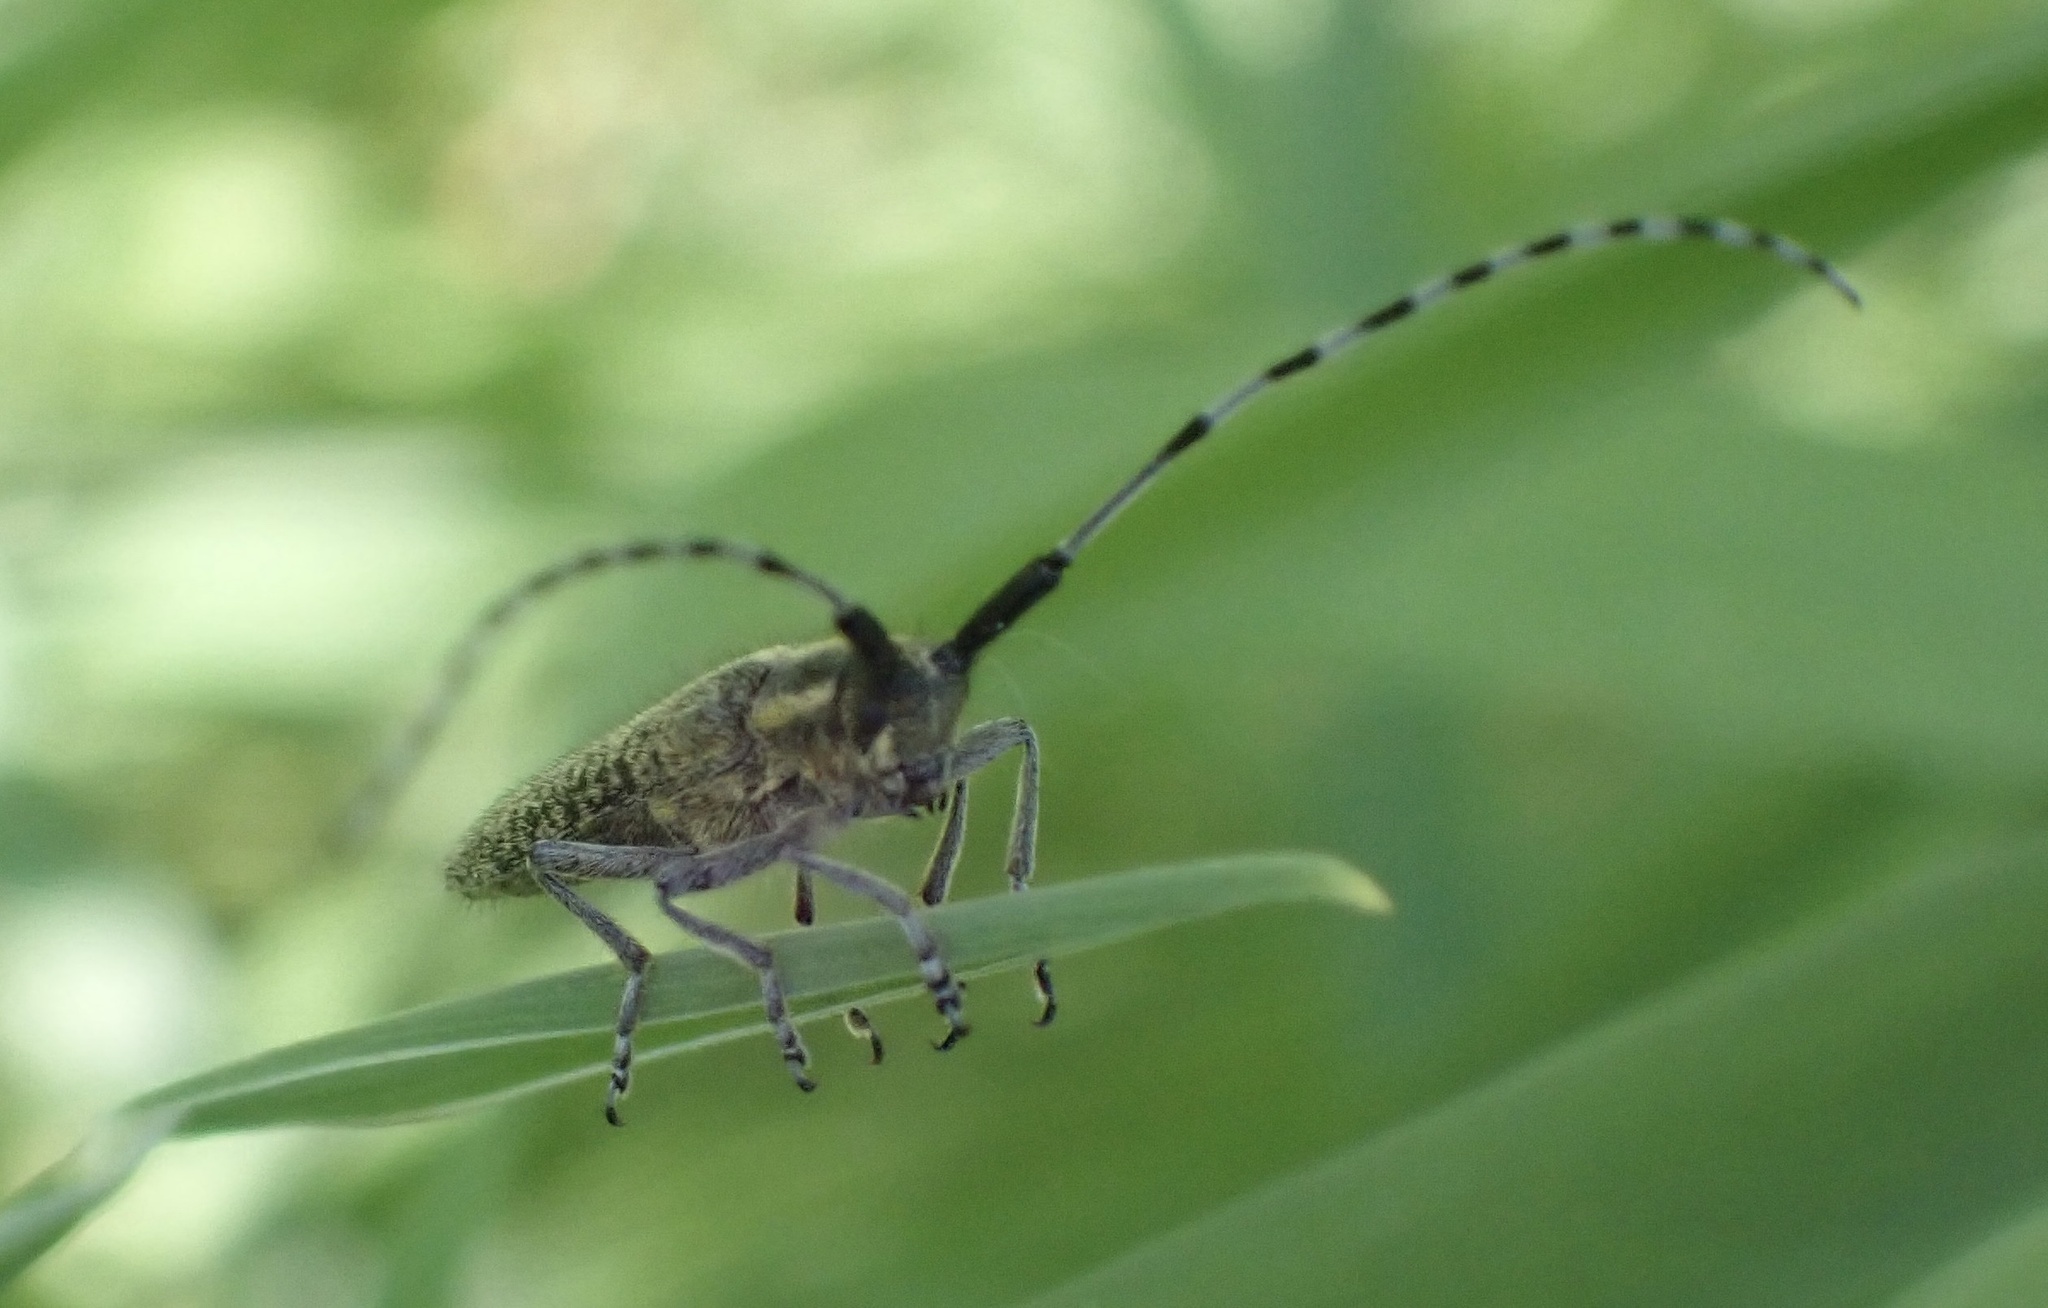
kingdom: Animalia
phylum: Arthropoda
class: Insecta
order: Coleoptera
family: Cerambycidae
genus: Agapanthia
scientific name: Agapanthia villosoviridescens
